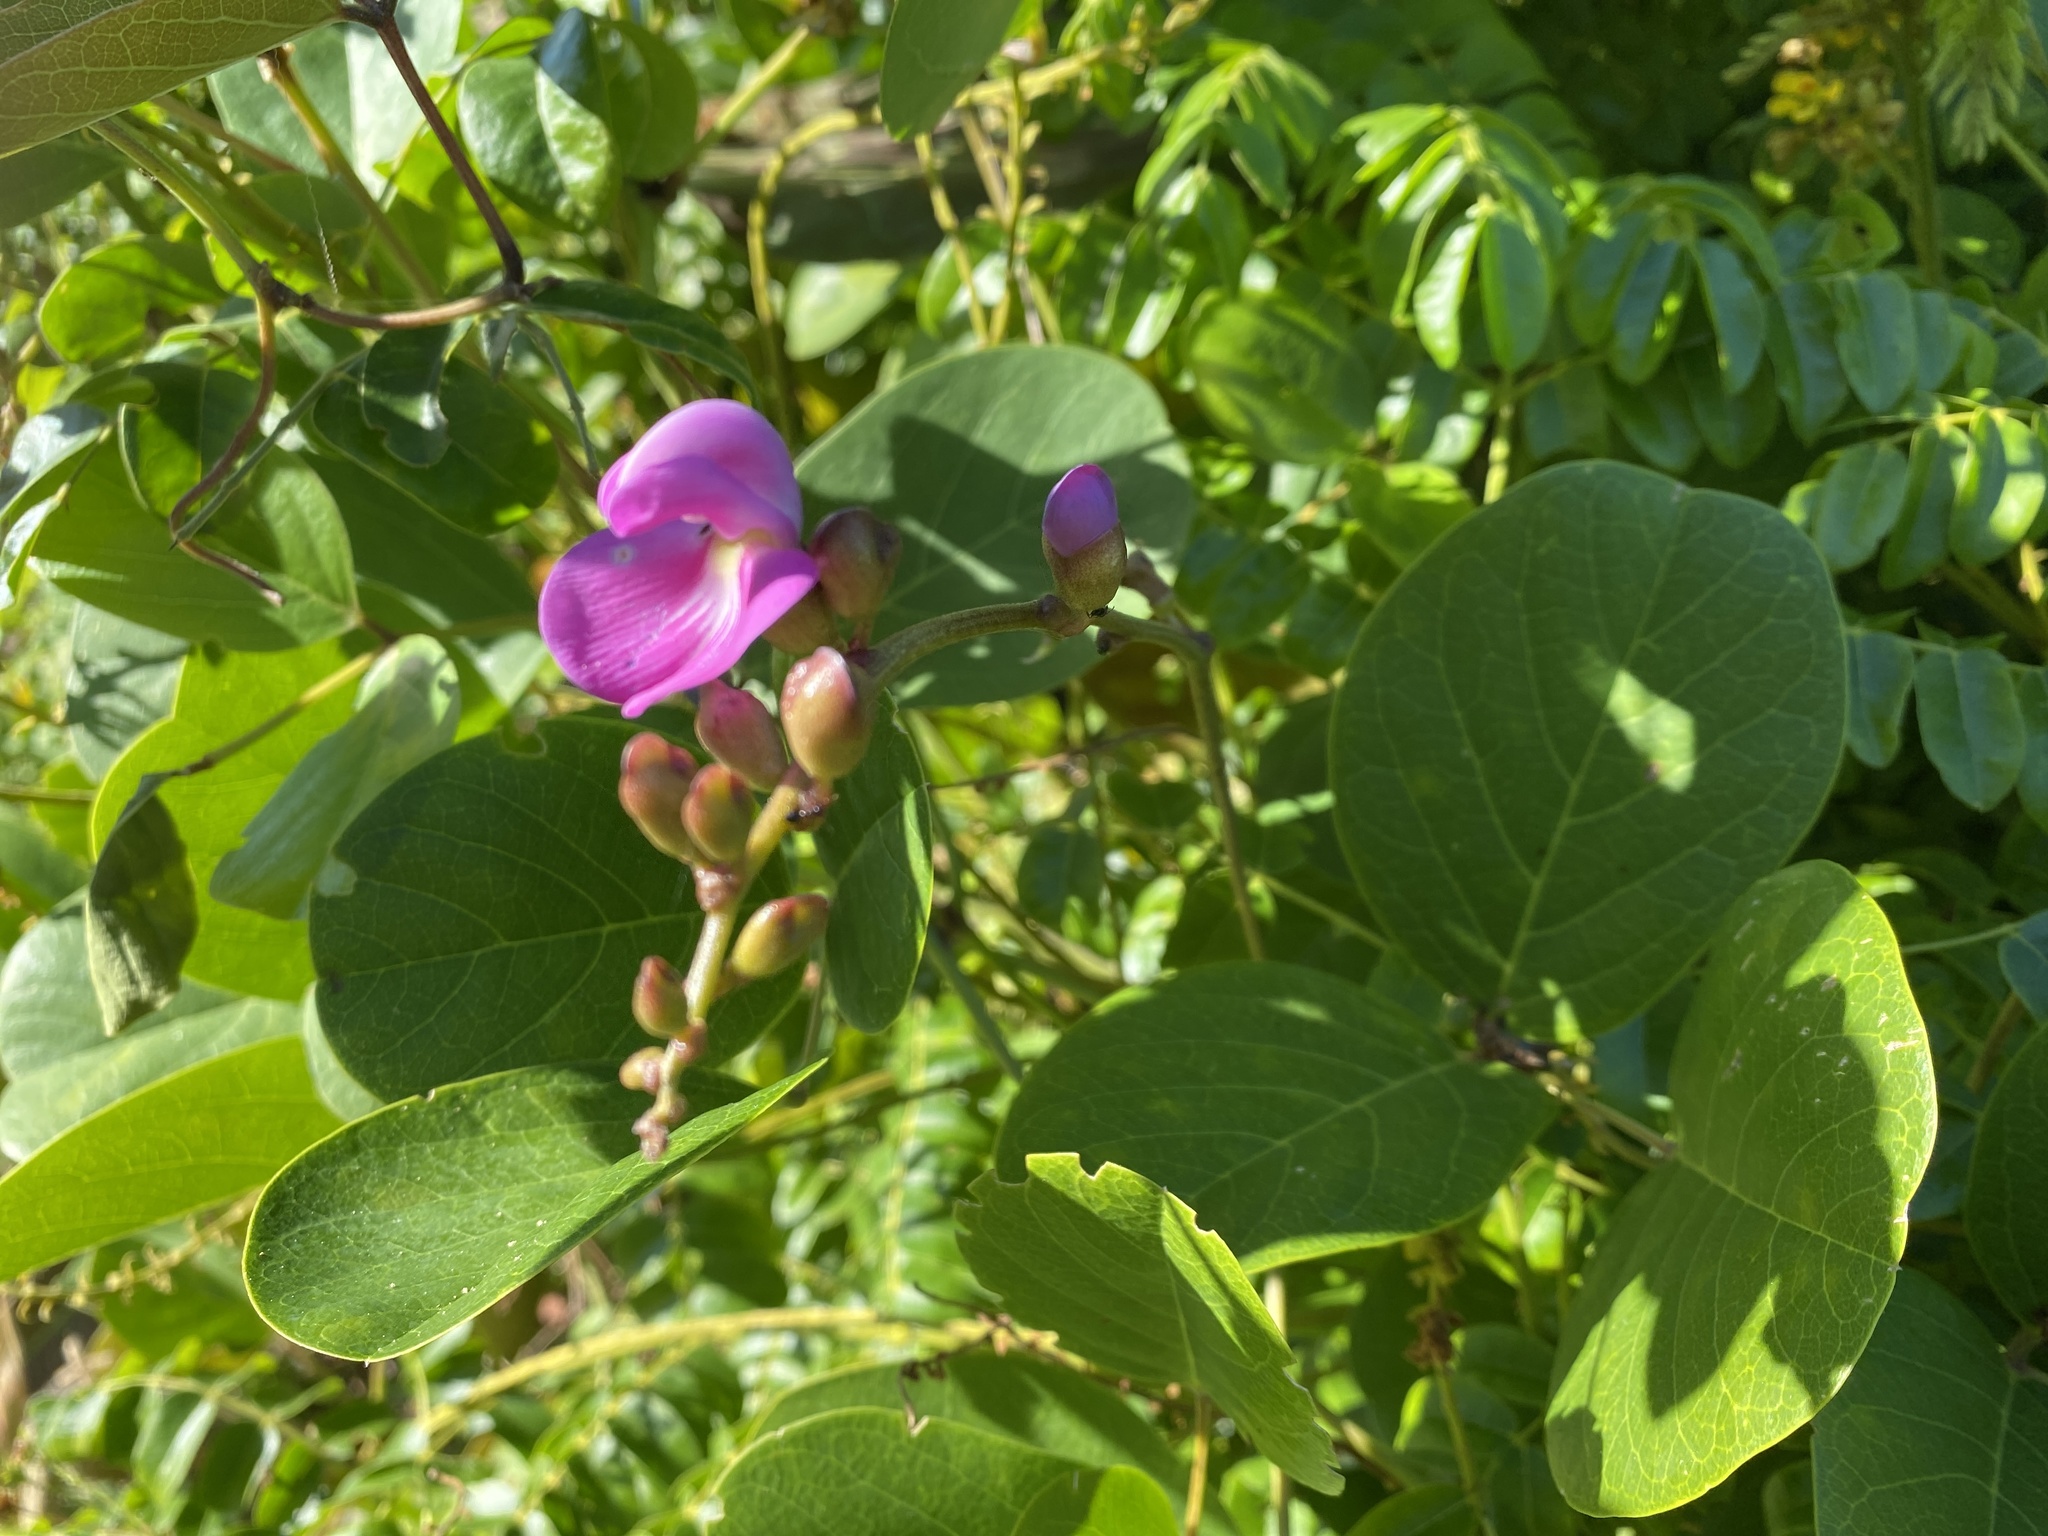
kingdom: Plantae
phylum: Tracheophyta
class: Magnoliopsida
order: Fabales
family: Fabaceae
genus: Canavalia
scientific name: Canavalia rosea
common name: Beach-bean
